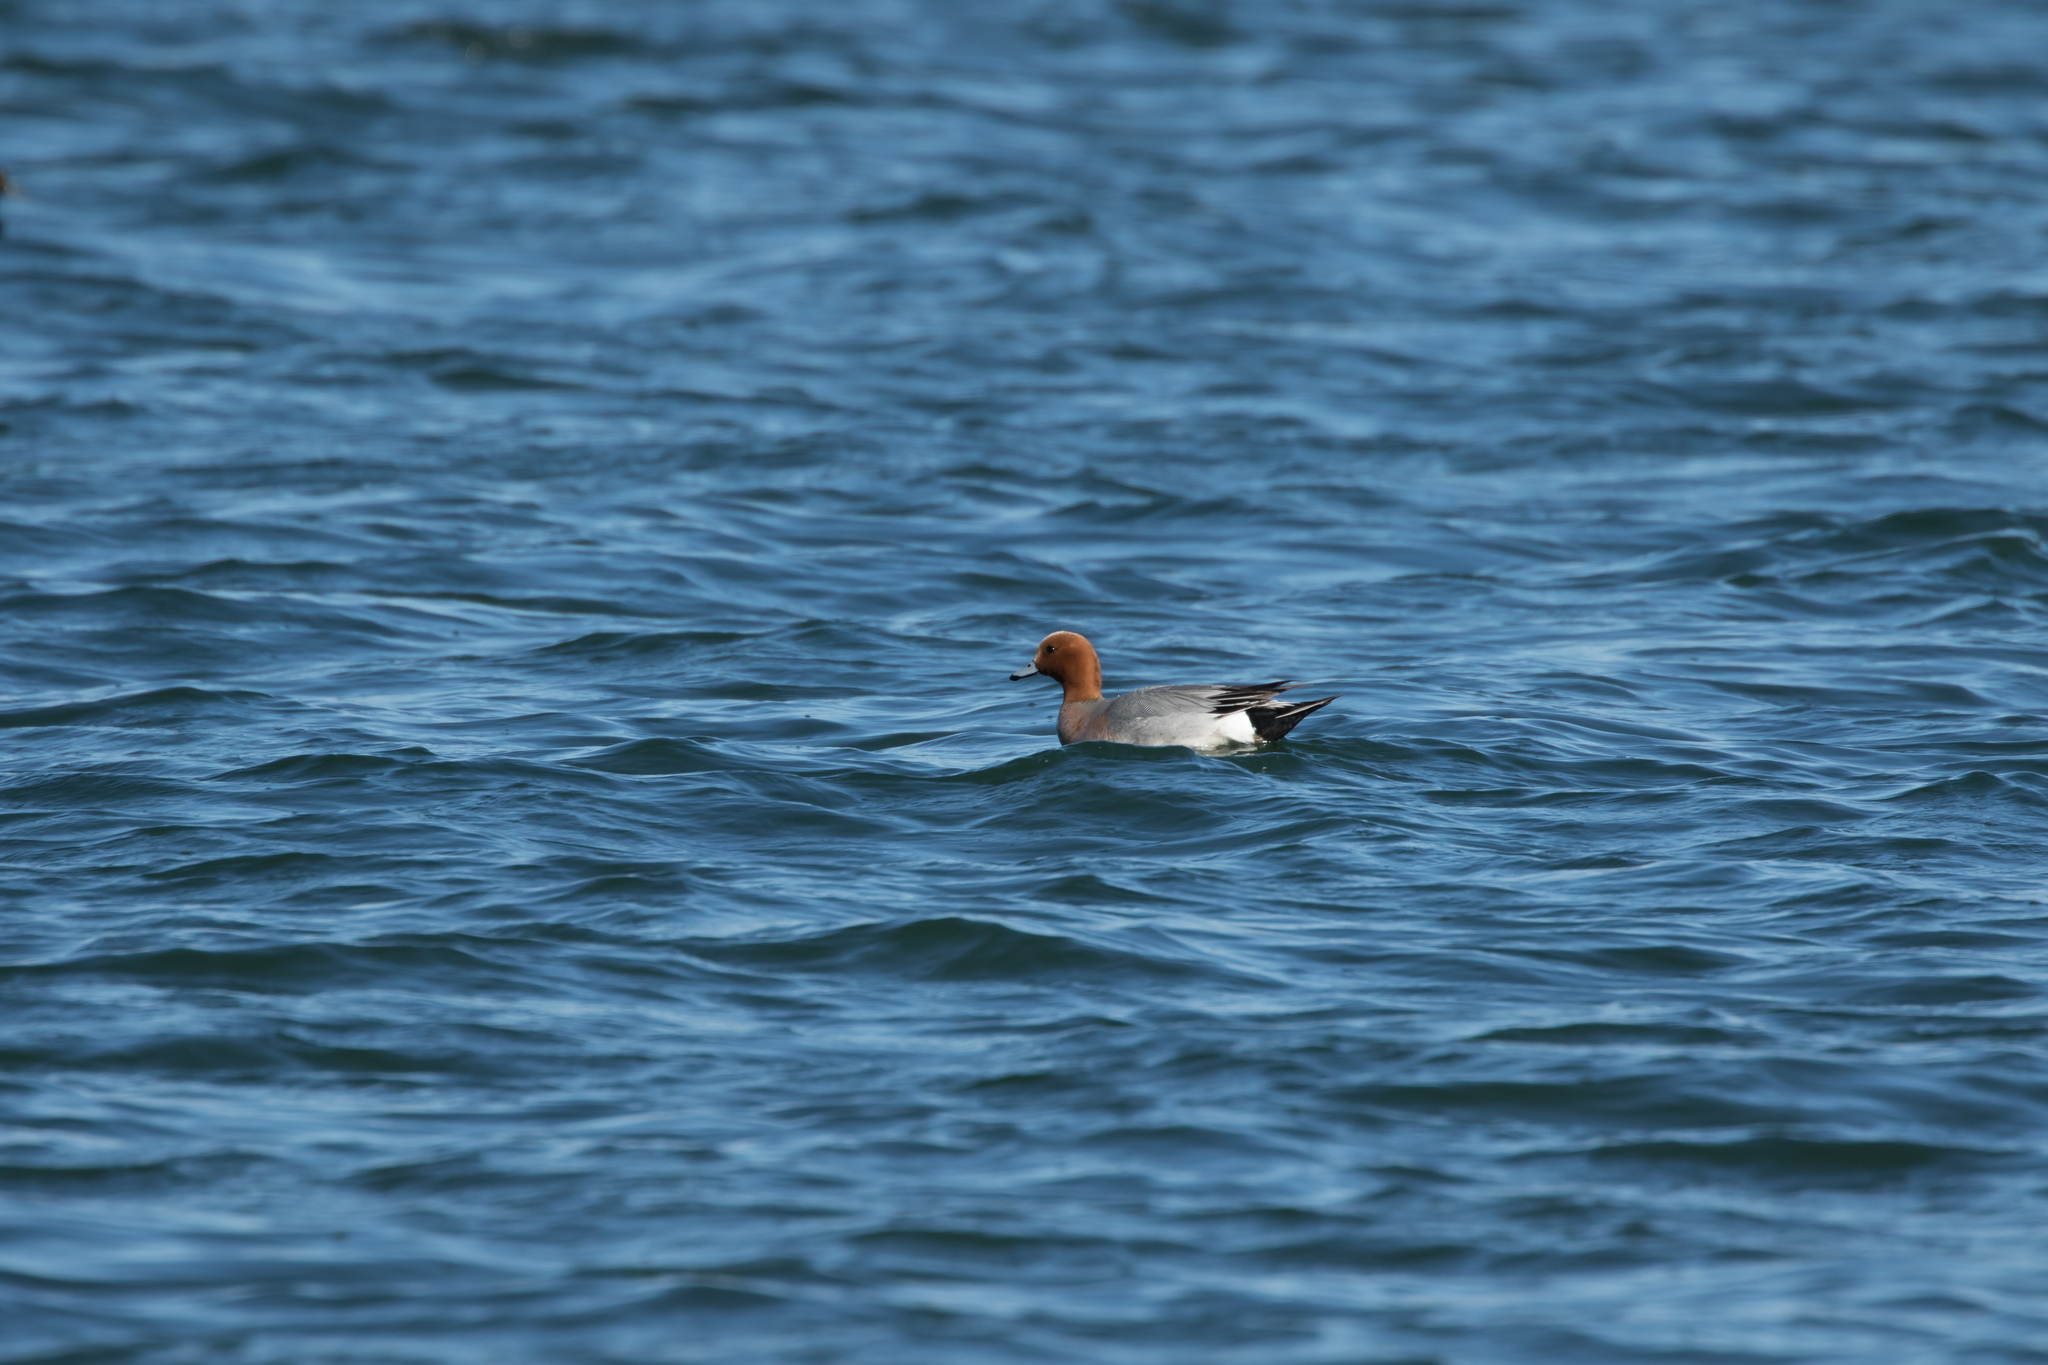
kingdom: Animalia
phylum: Chordata
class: Aves
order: Anseriformes
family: Anatidae
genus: Mareca
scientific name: Mareca penelope
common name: Eurasian wigeon
